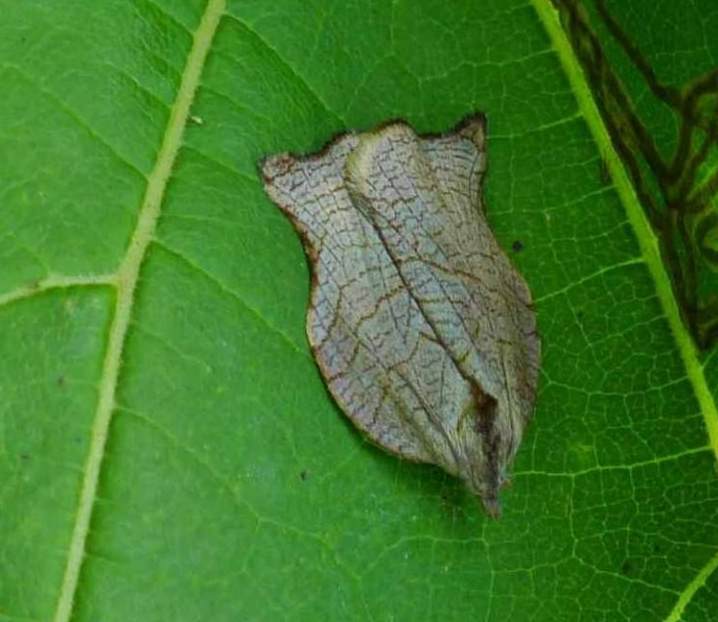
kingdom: Animalia
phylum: Arthropoda
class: Insecta
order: Lepidoptera
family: Tortricidae
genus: Archips
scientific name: Archips purpurana
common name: Omnivorous leafroller
